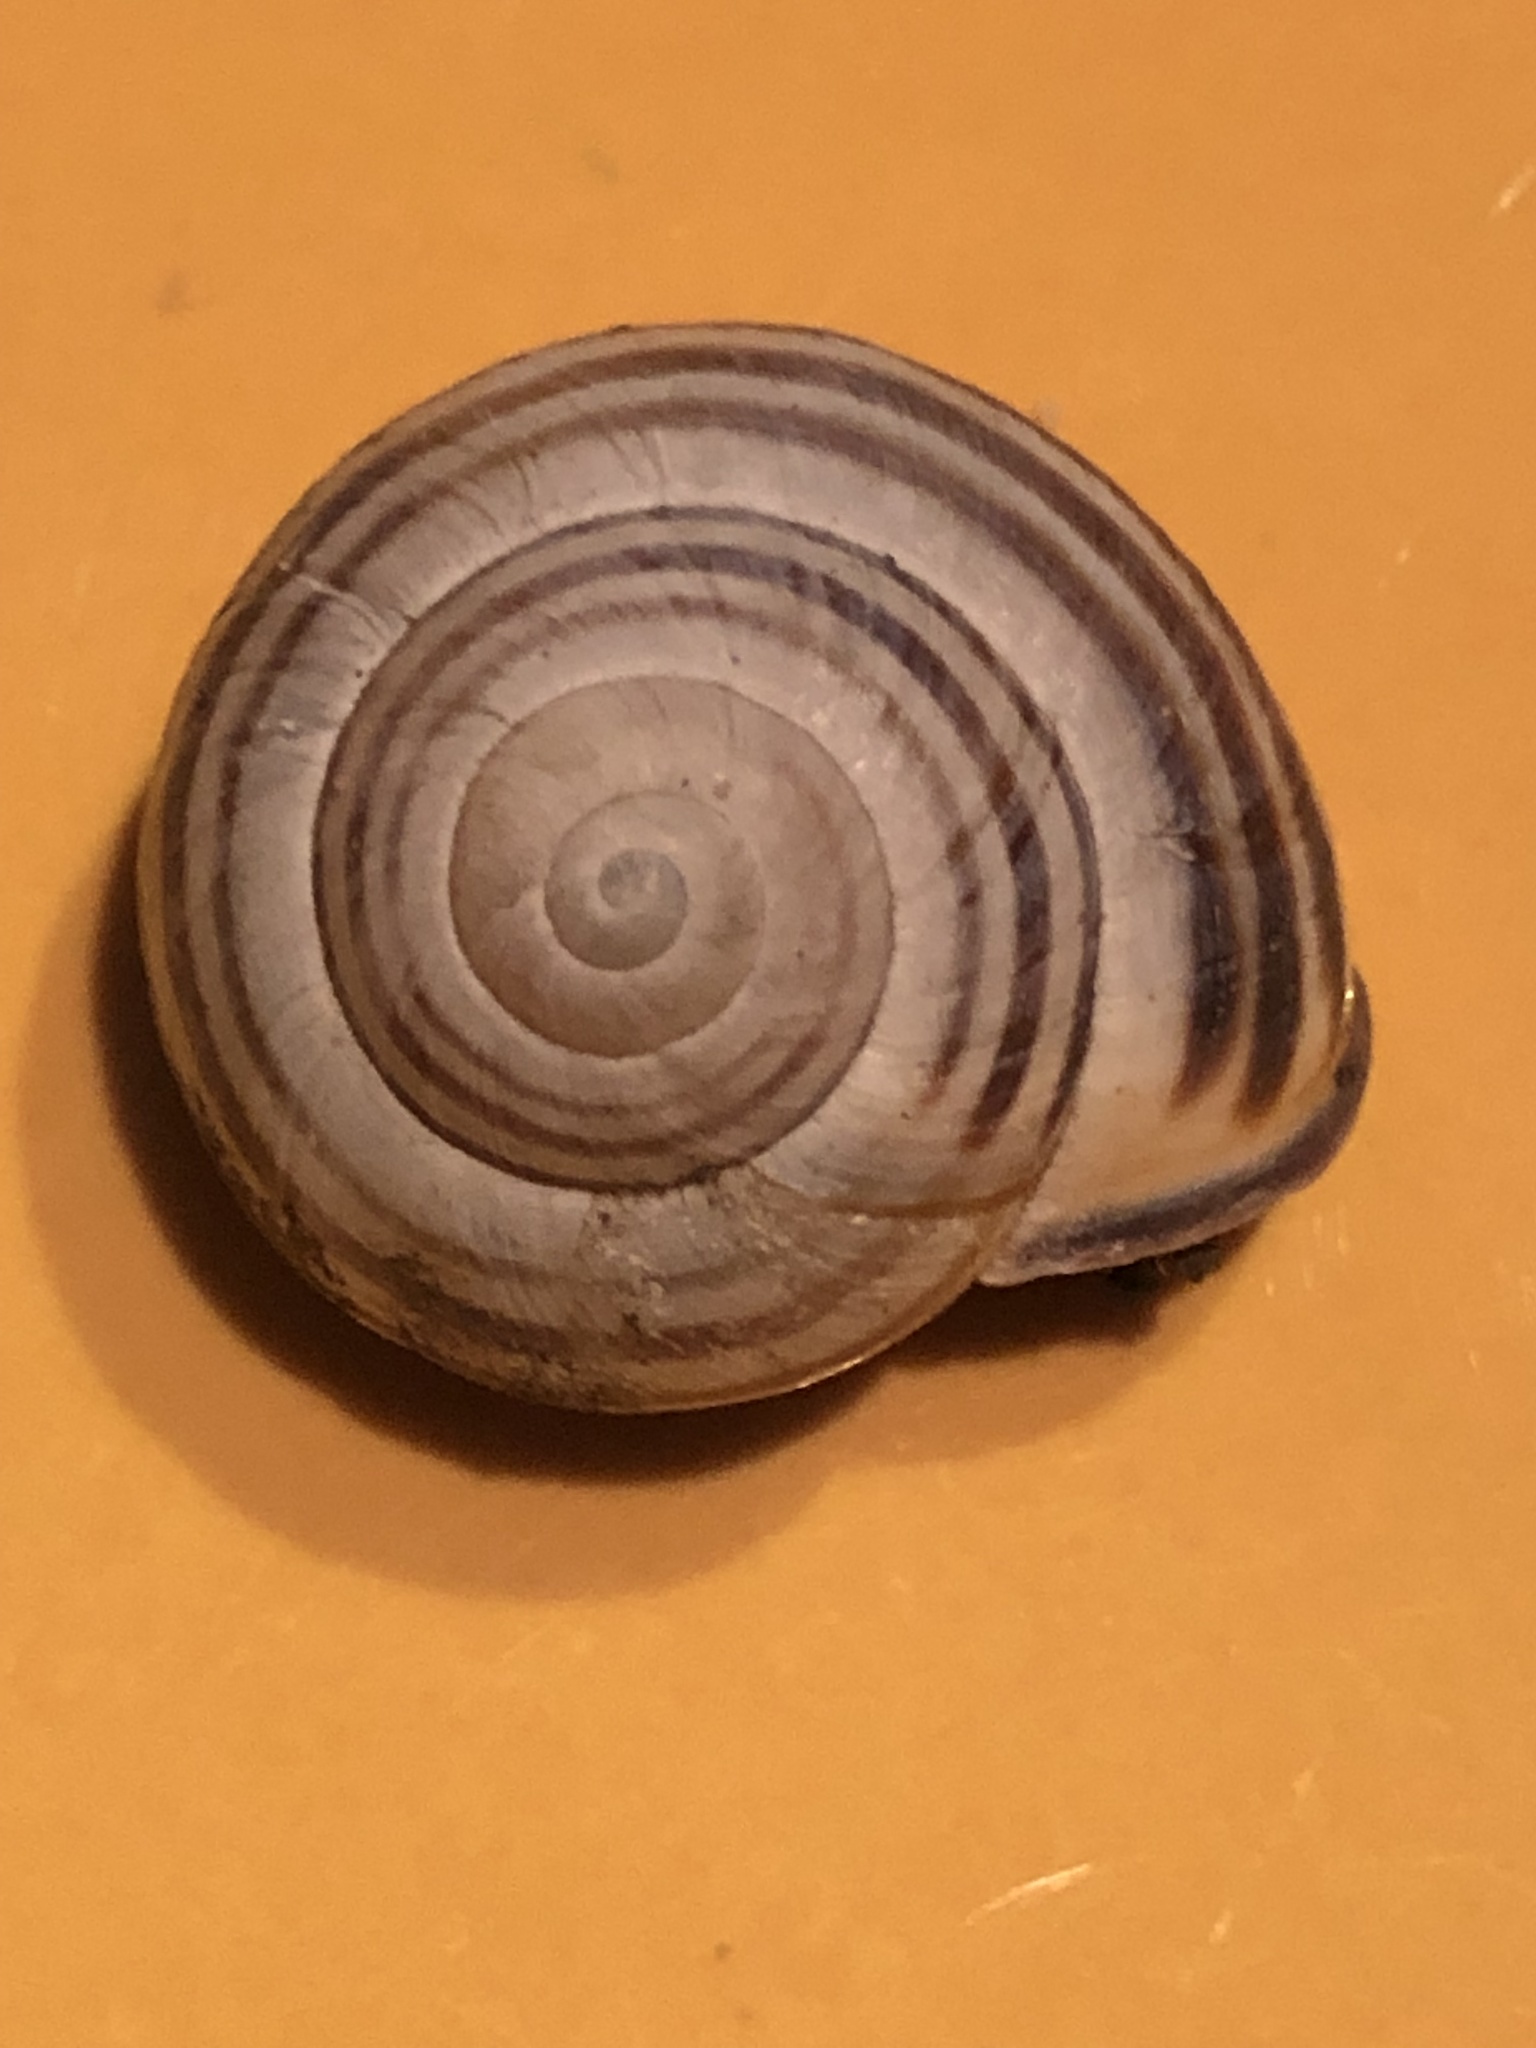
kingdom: Animalia
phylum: Mollusca
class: Gastropoda
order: Stylommatophora
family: Helicidae
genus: Cepaea
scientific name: Cepaea nemoralis
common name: Grovesnail
